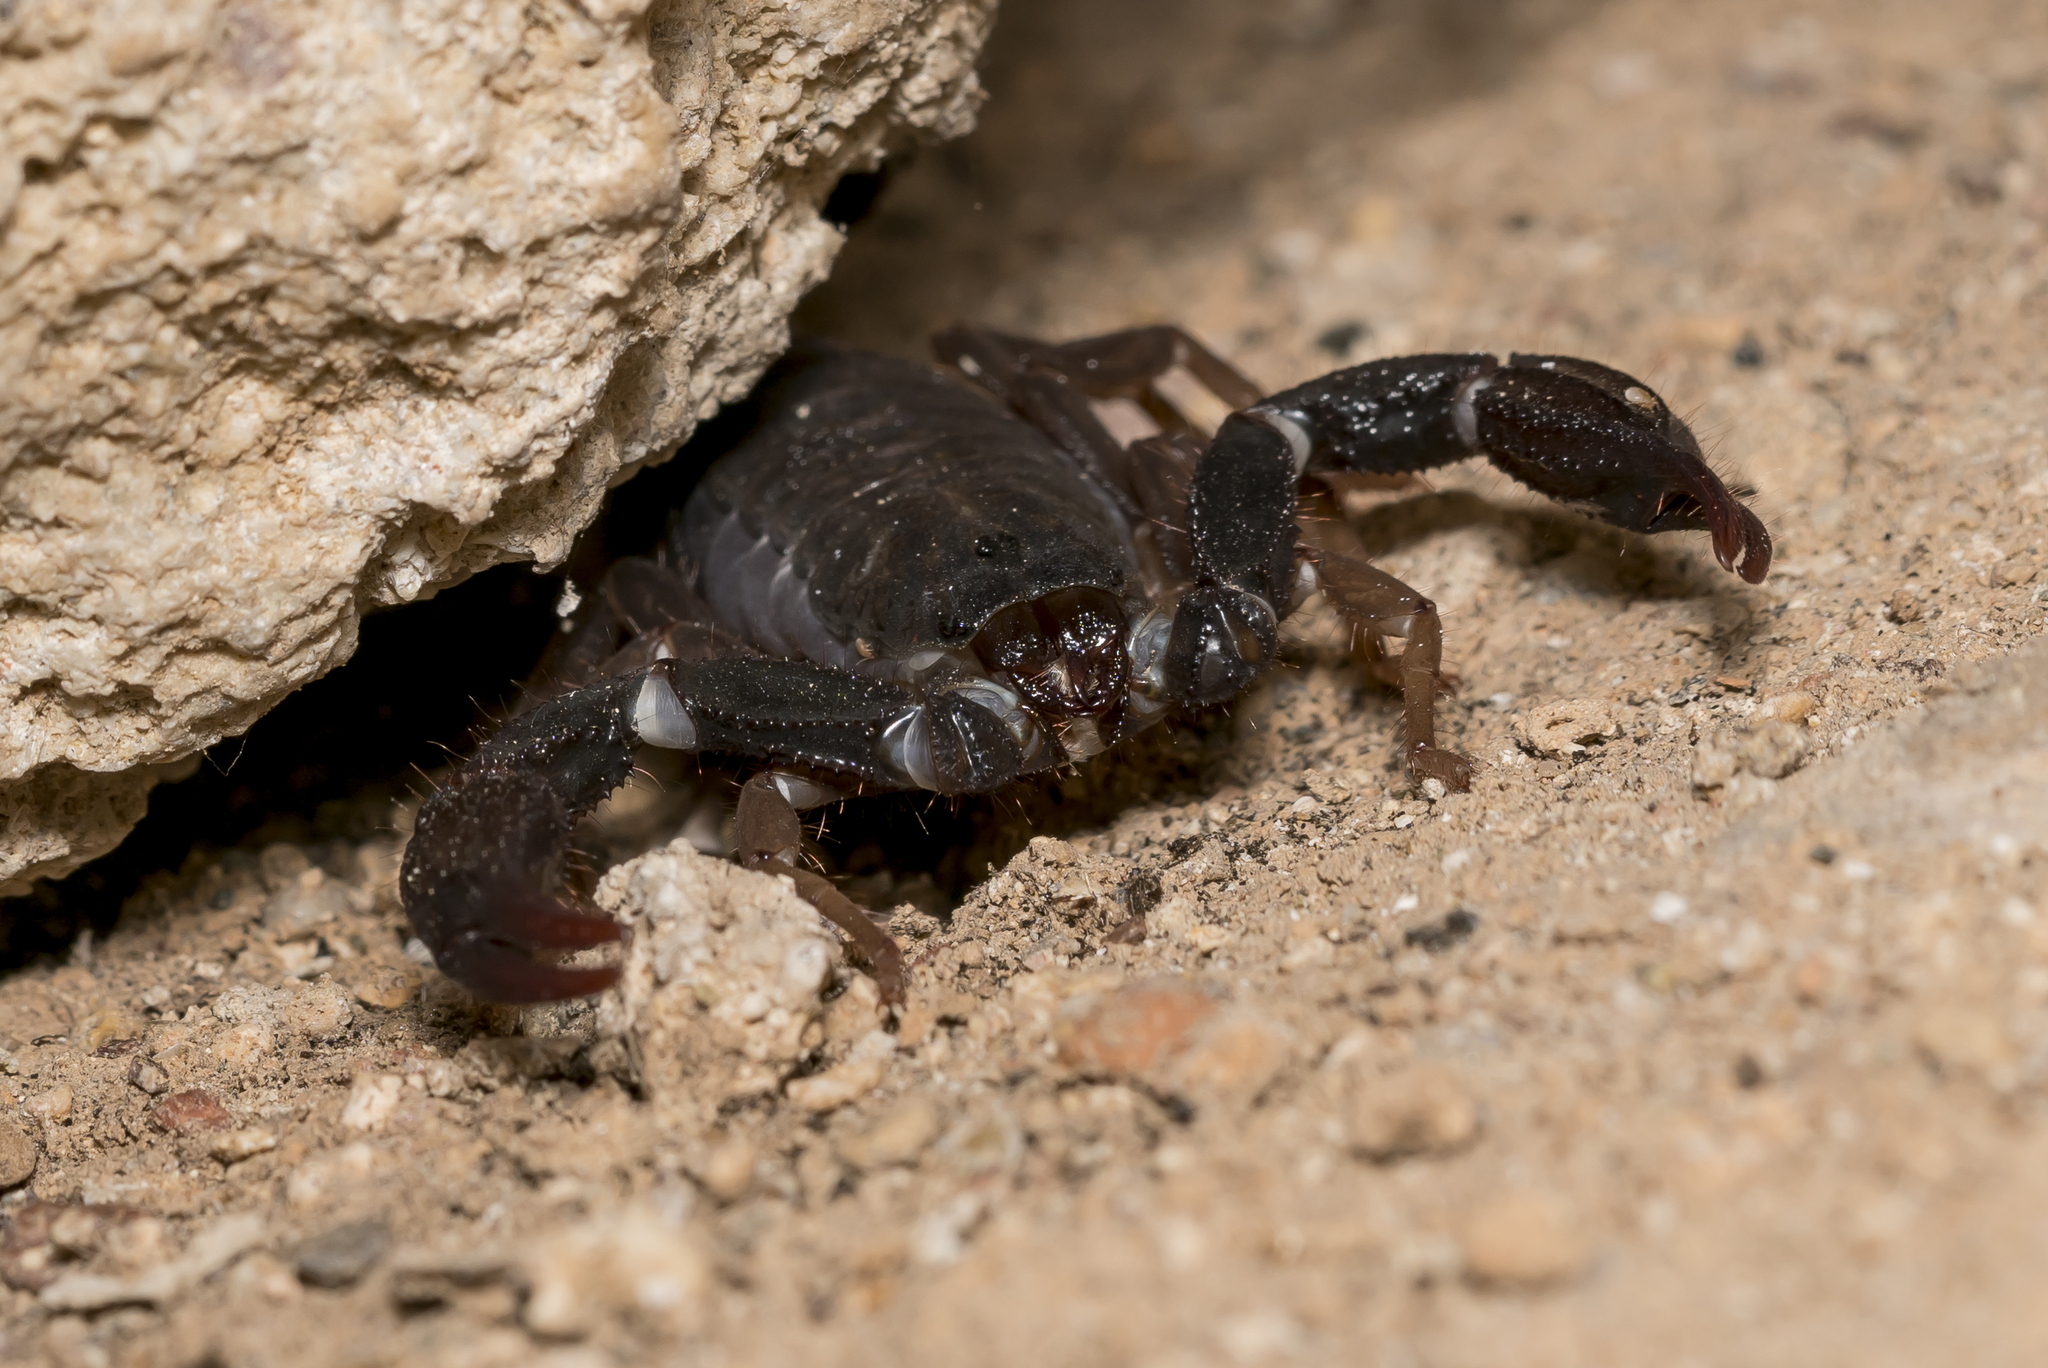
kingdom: Animalia
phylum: Arthropoda
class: Arachnida
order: Scorpiones
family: Iuridae
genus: Letoiurus
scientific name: Letoiurus rhodiensis
